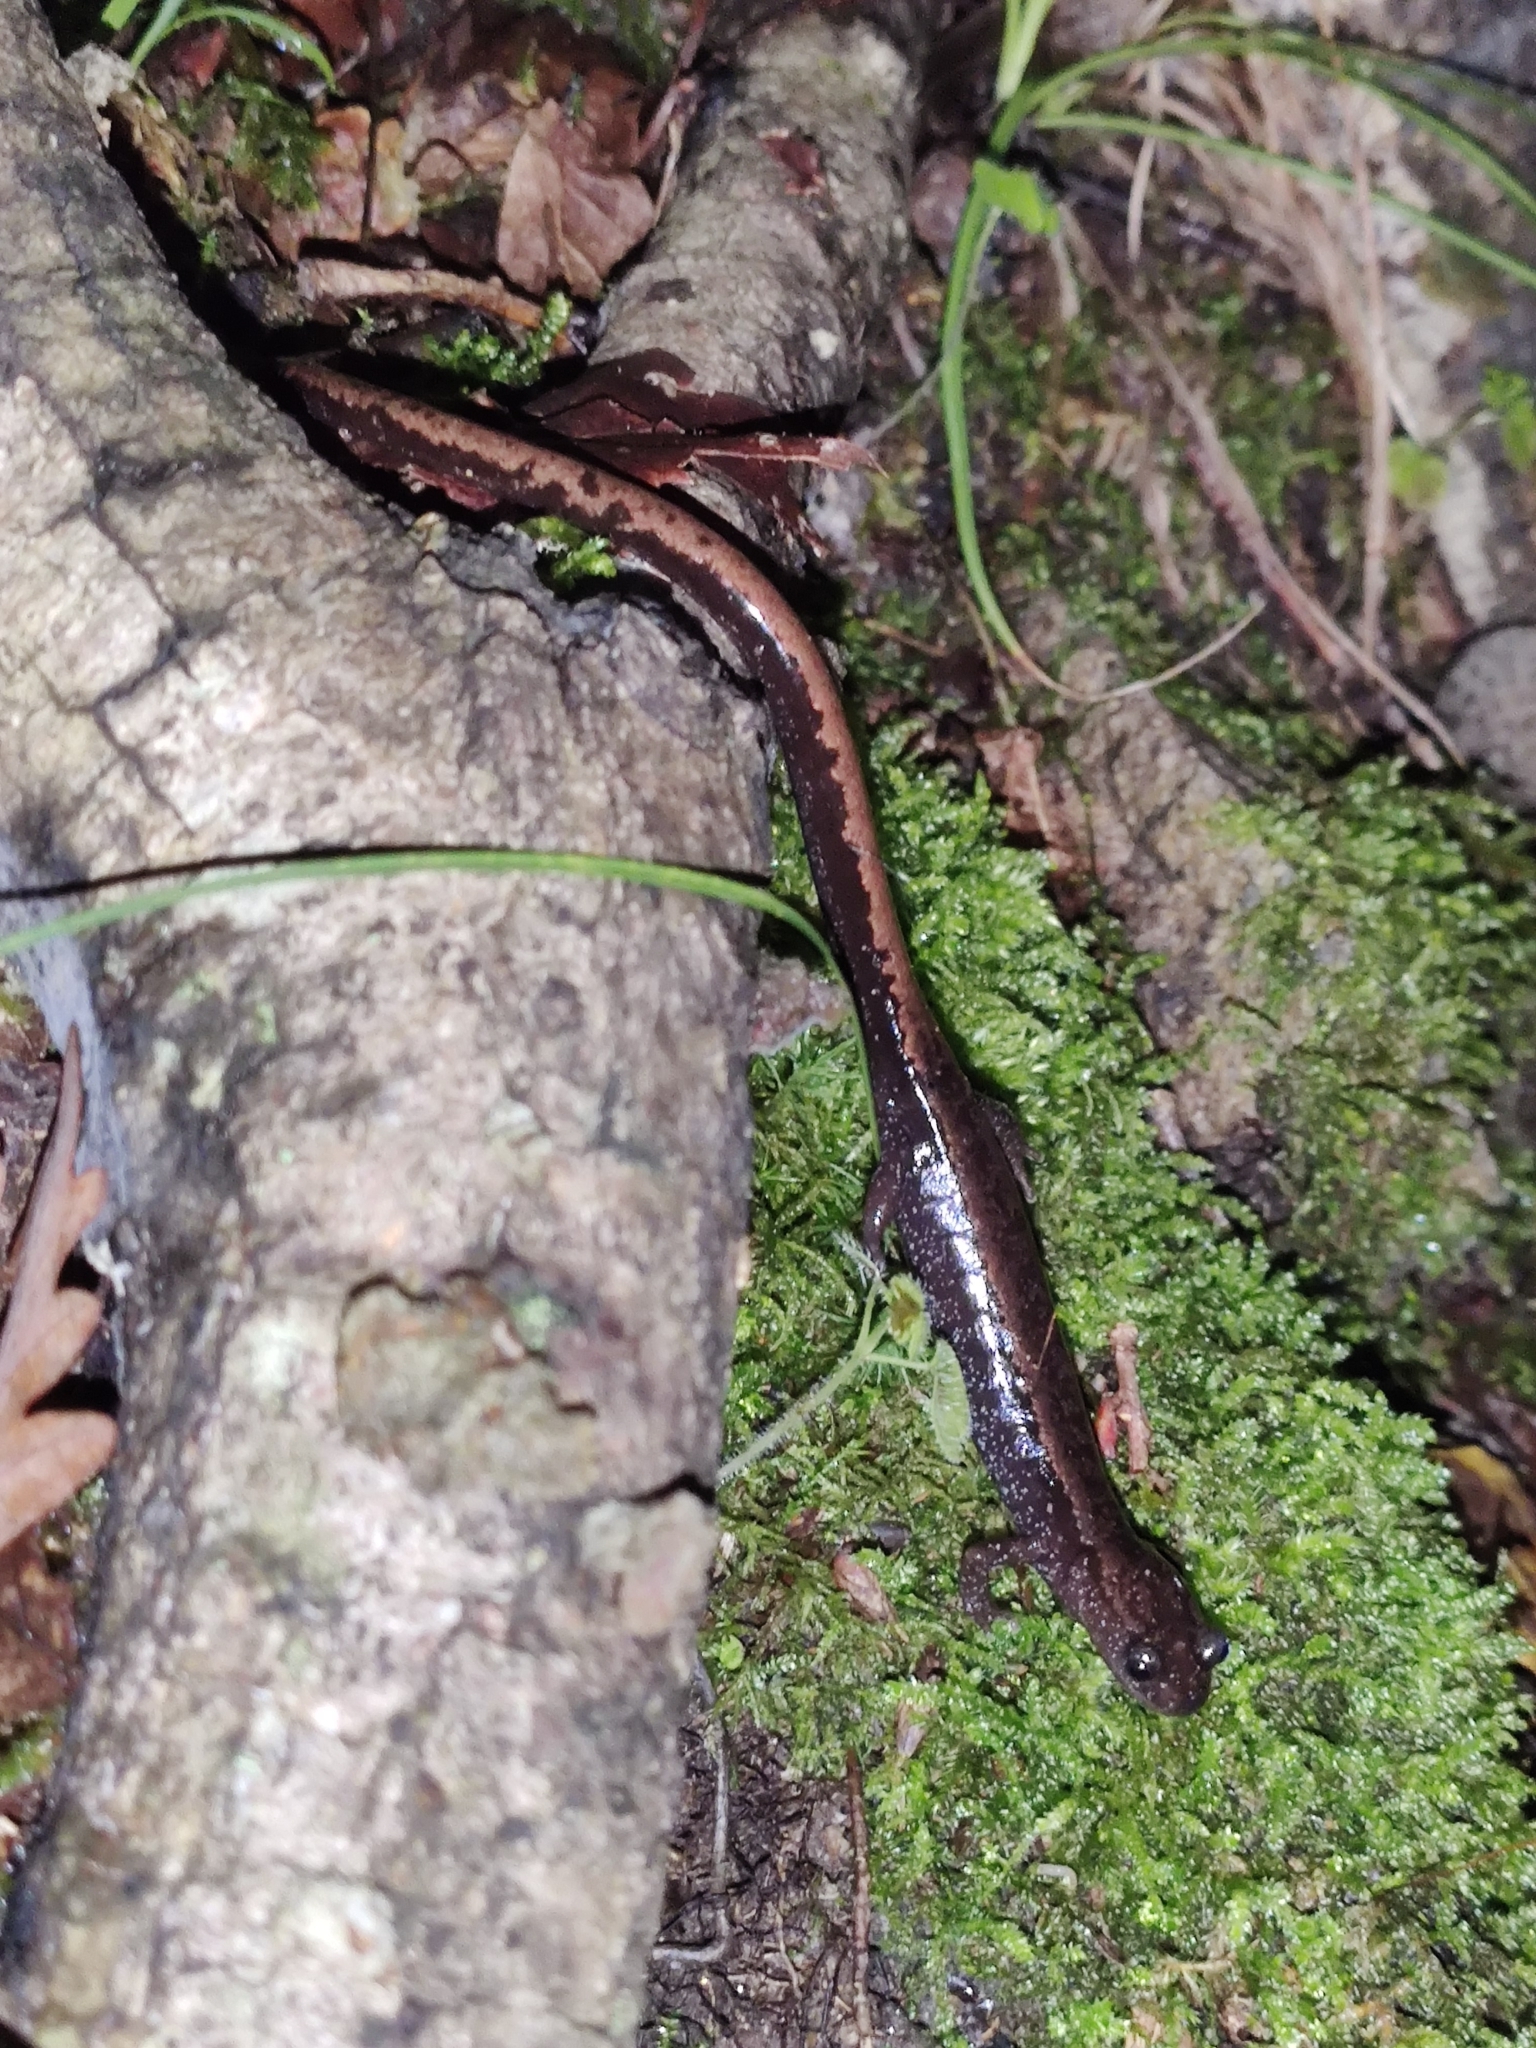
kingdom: Animalia
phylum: Chordata
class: Amphibia
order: Caudata
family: Salamandridae
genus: Chioglossa
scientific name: Chioglossa lusitanica
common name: Gold-striped salamander
